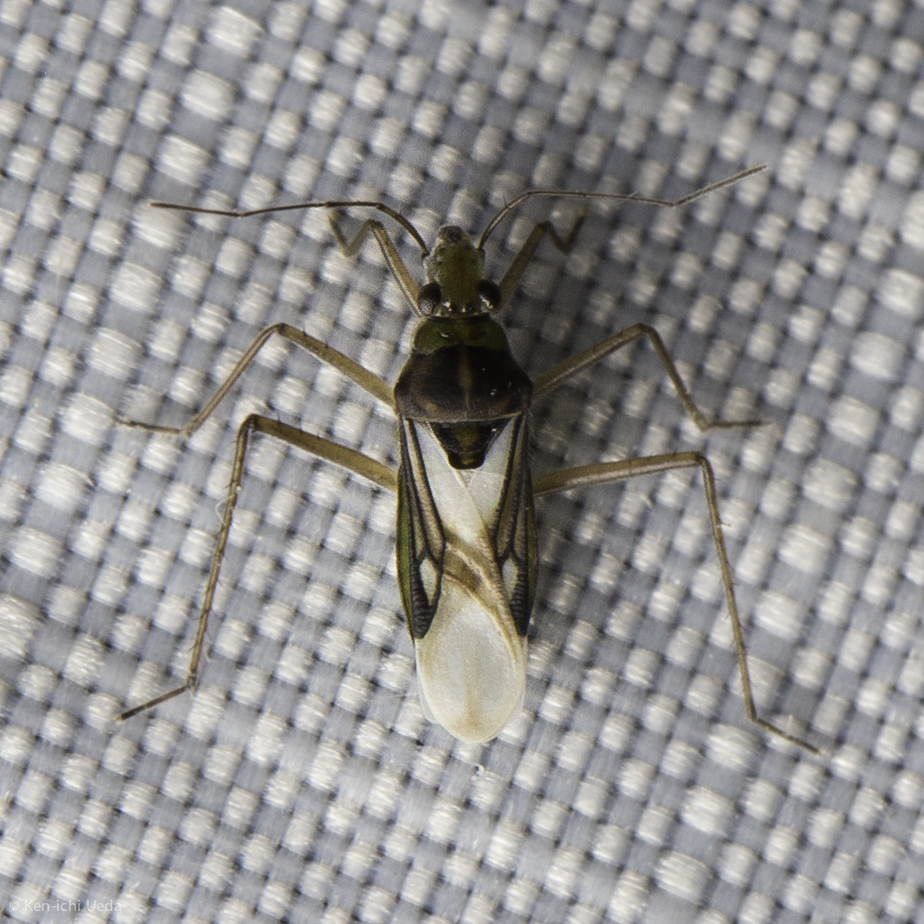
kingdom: Animalia
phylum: Arthropoda
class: Insecta
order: Hemiptera
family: Mesoveliidae
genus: Mesovelia
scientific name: Mesovelia mulsanti
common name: Water treaders
